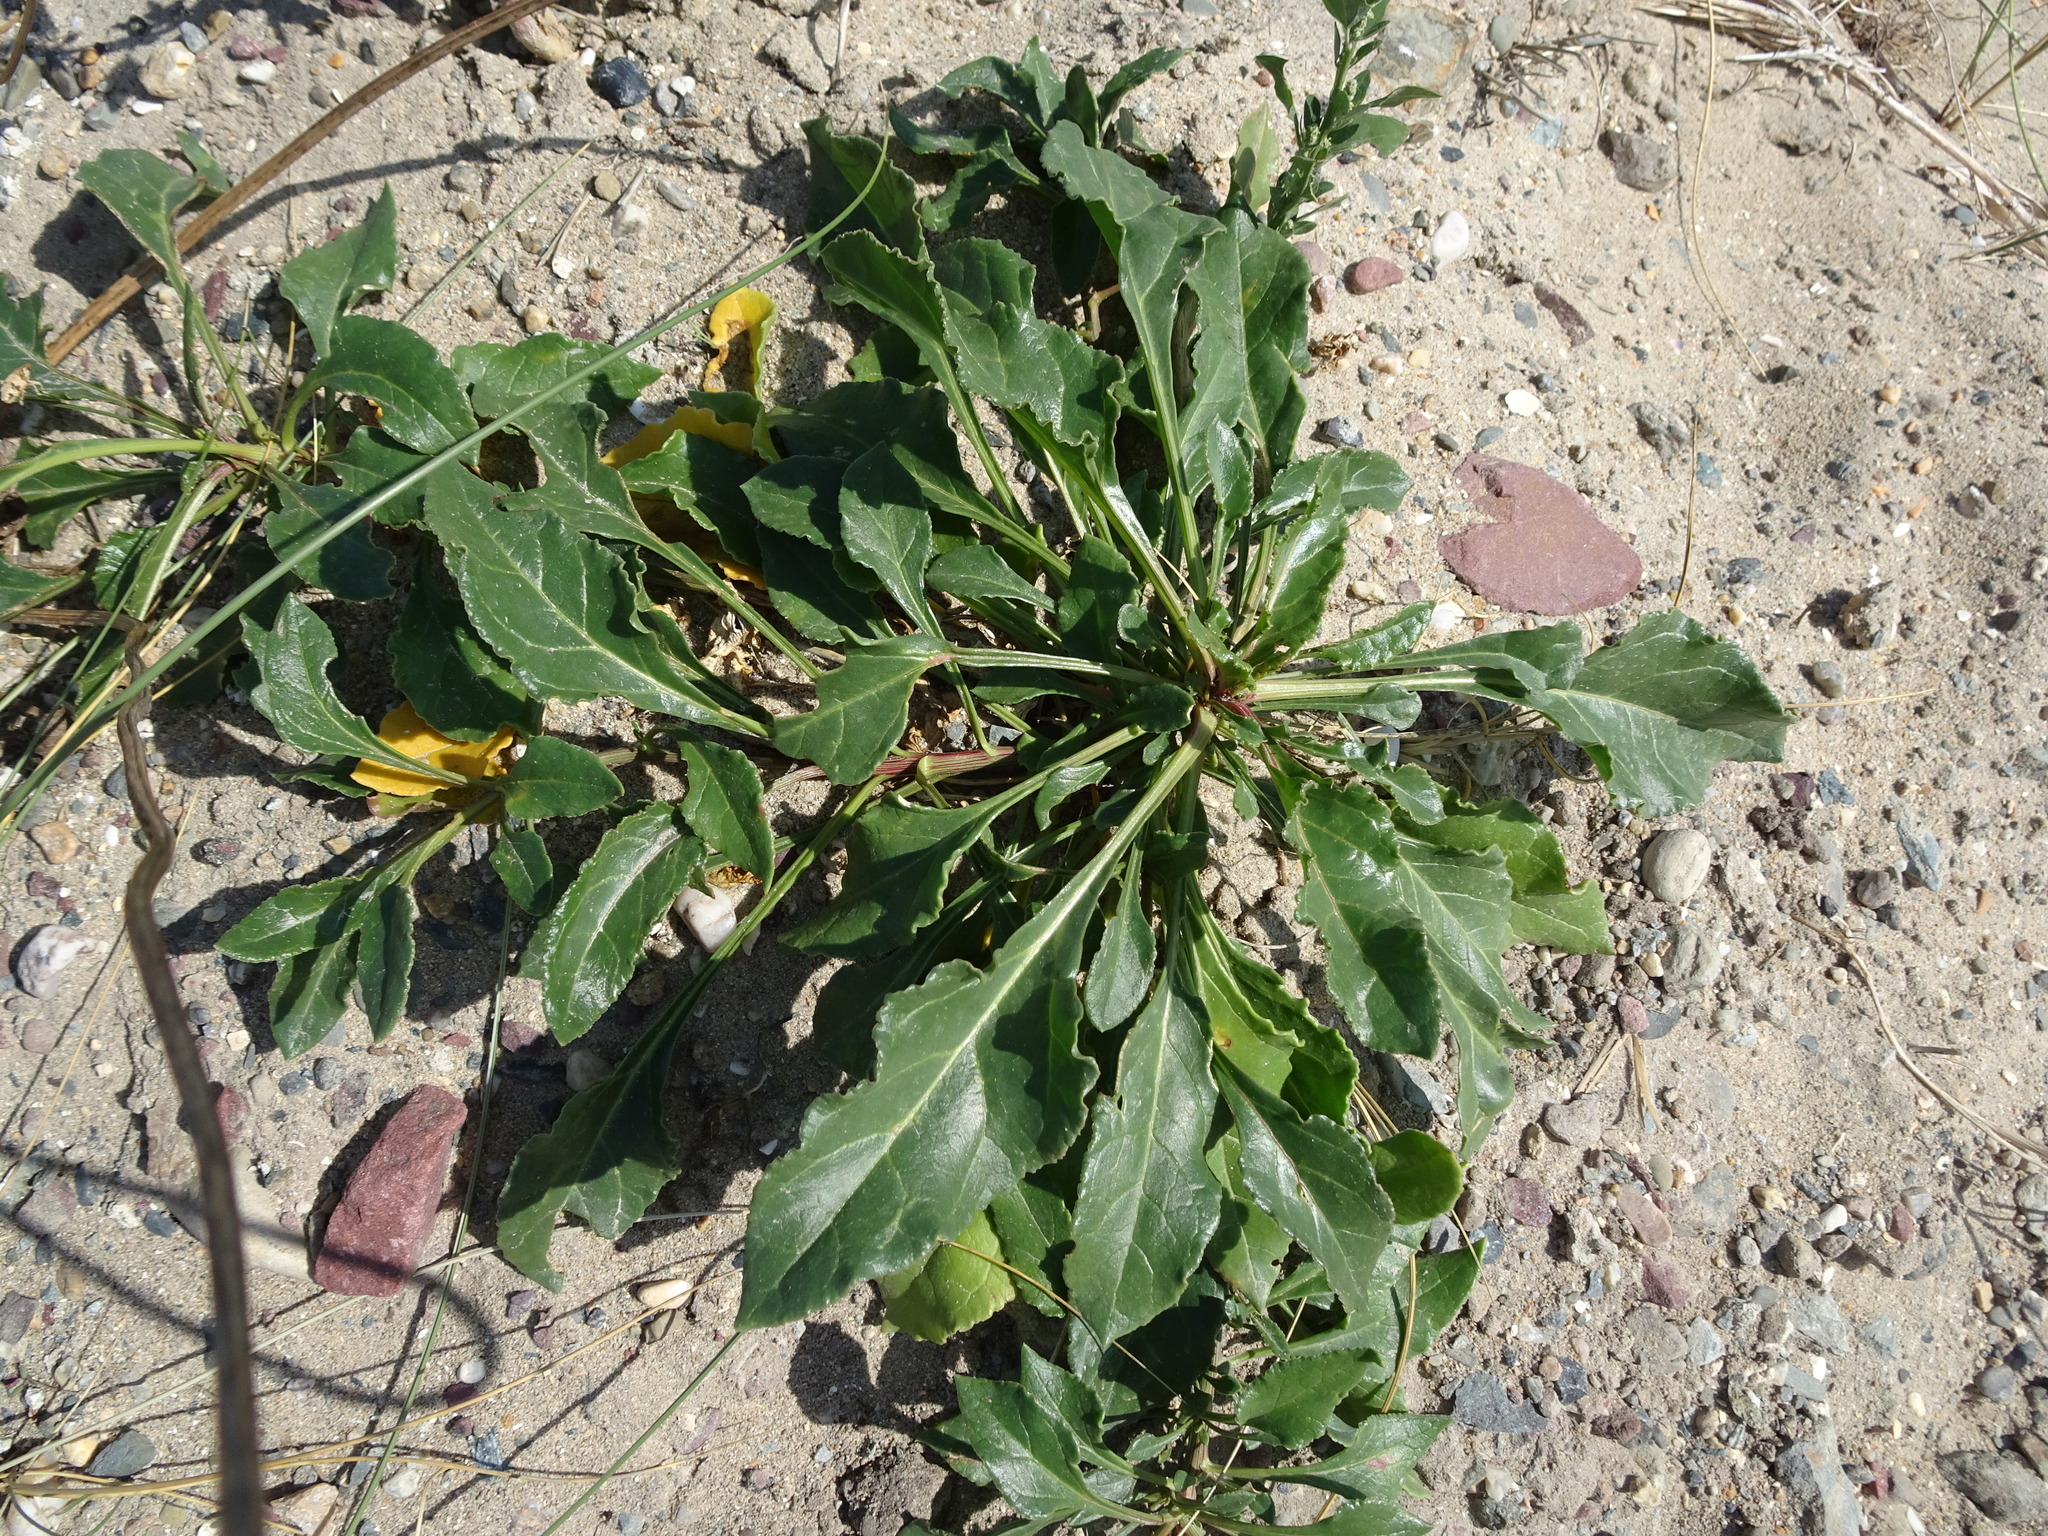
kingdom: Plantae
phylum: Tracheophyta
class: Magnoliopsida
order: Caryophyllales
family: Amaranthaceae
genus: Beta
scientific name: Beta vulgaris
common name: Beet
